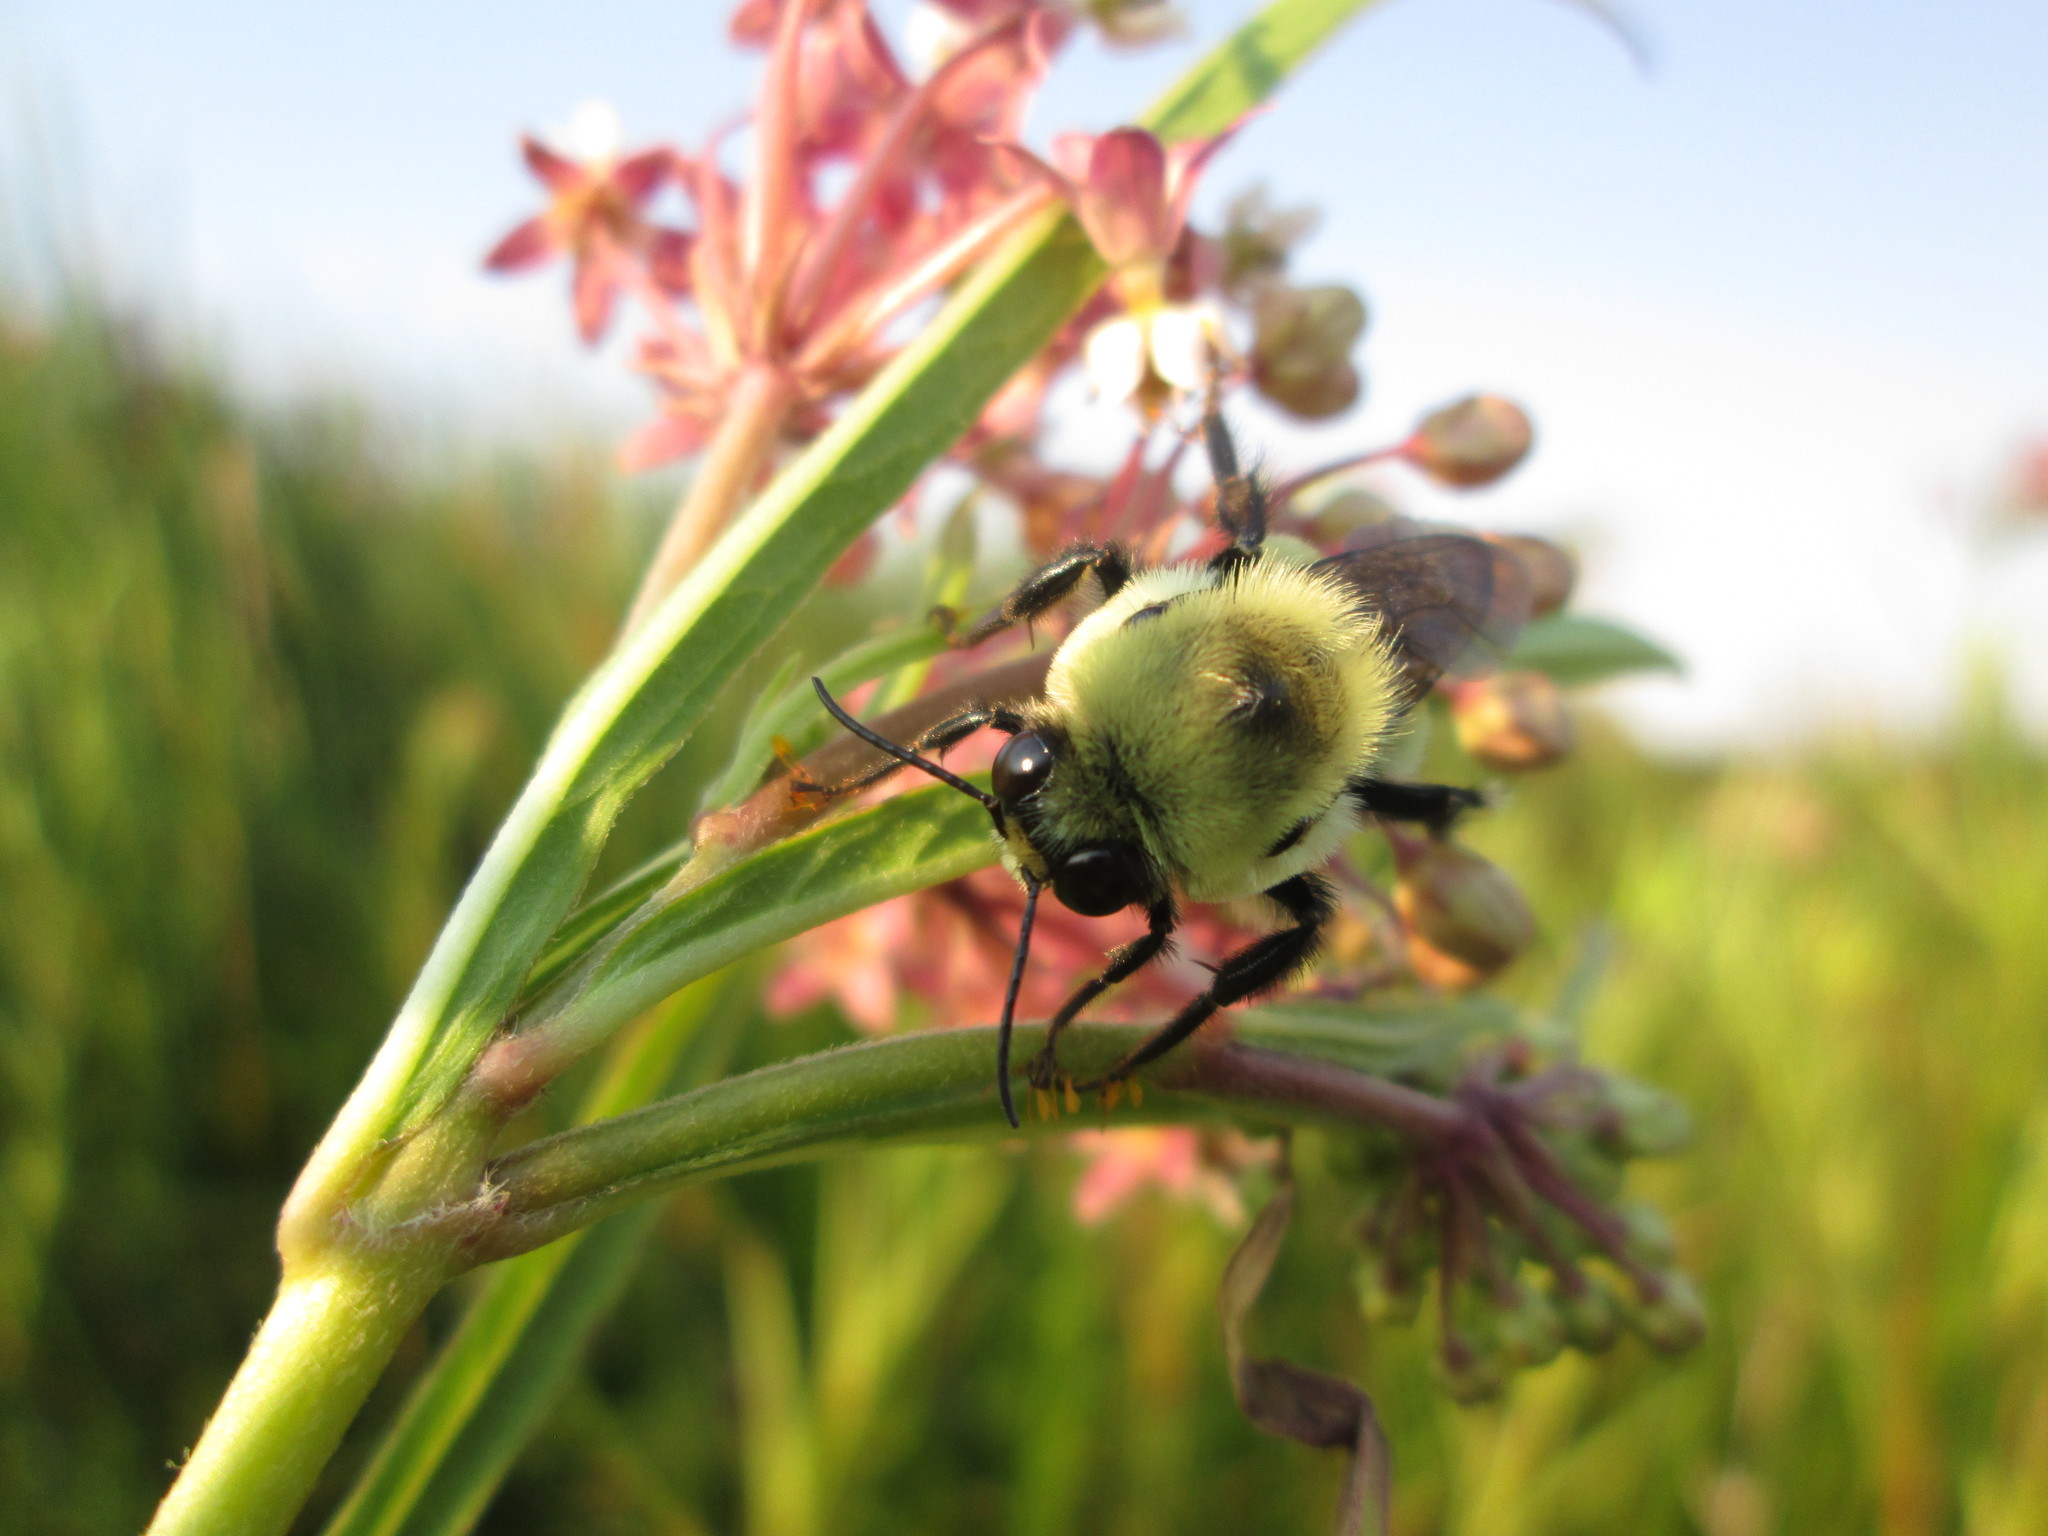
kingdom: Animalia
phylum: Arthropoda
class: Insecta
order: Hymenoptera
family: Apidae
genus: Bombus
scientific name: Bombus griseocollis
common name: Brown-belted bumble bee
